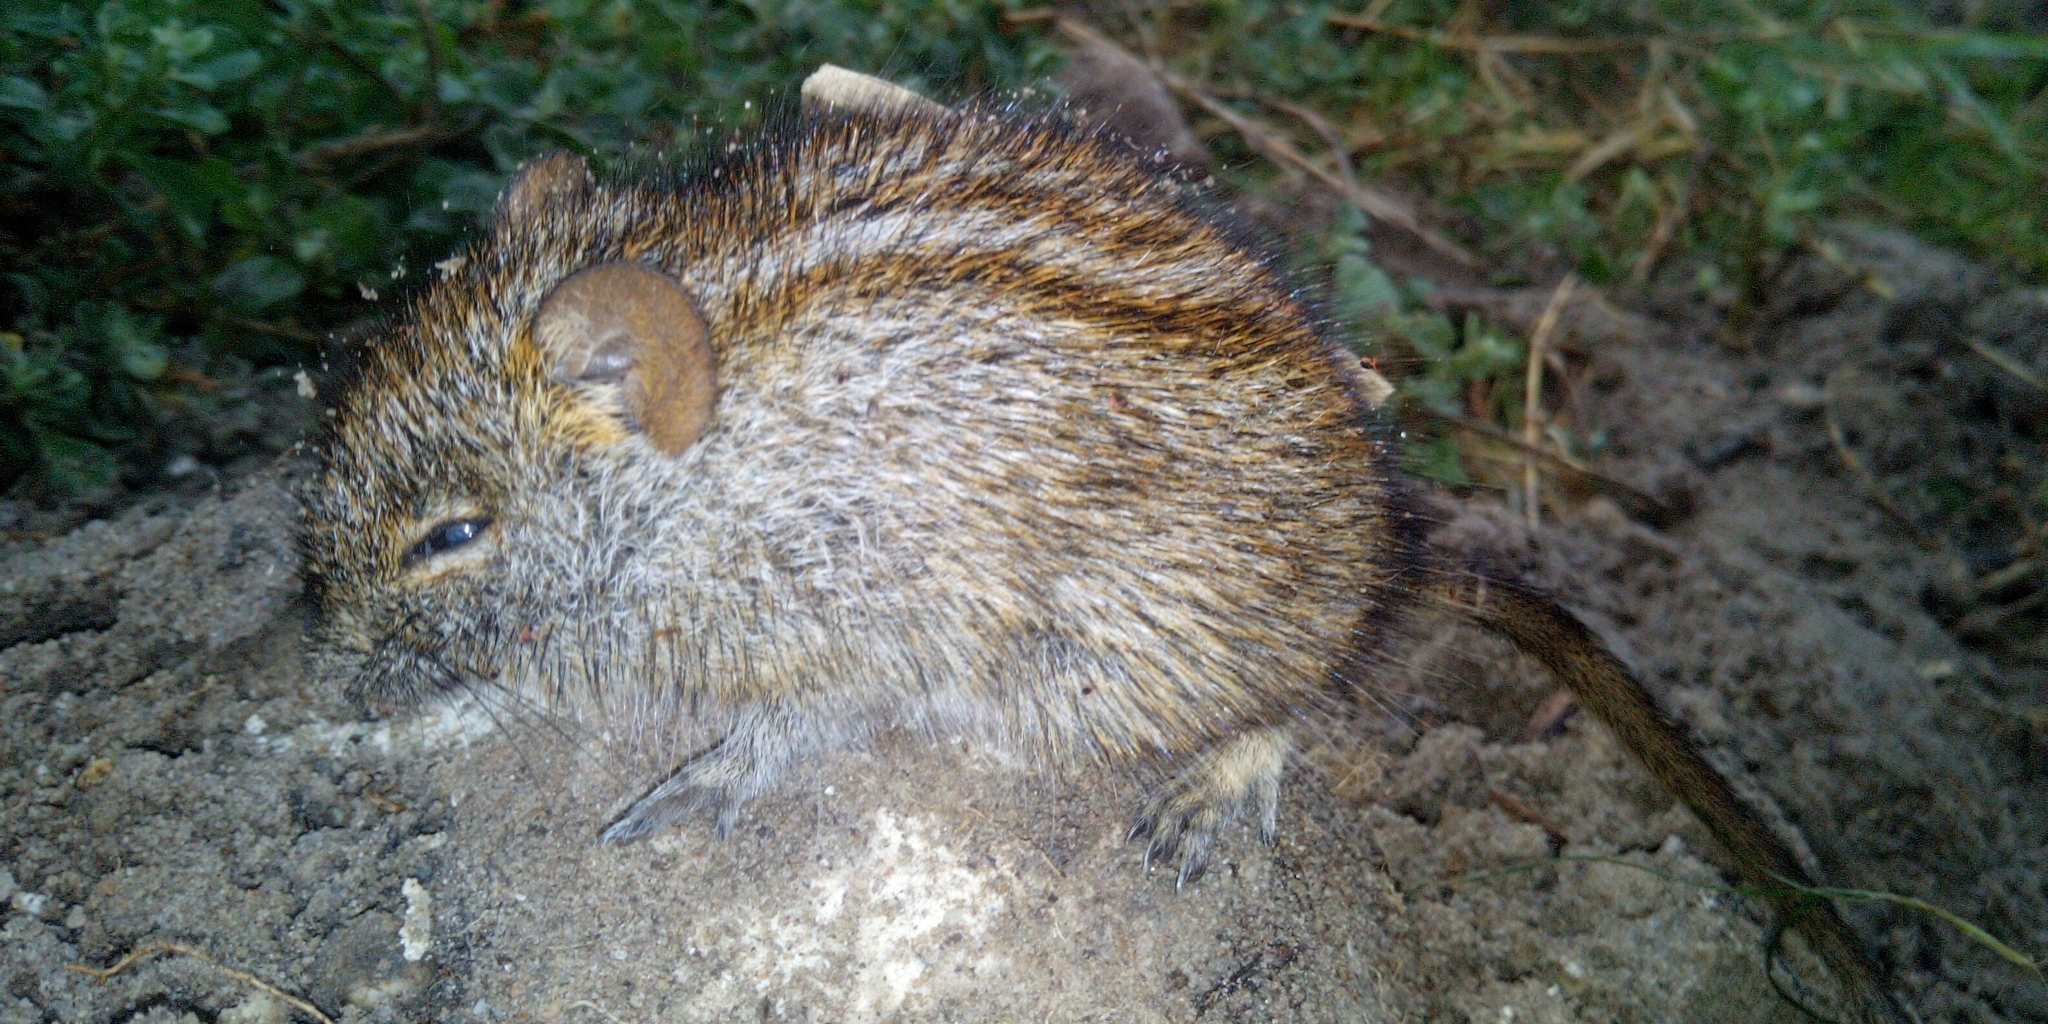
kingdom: Animalia
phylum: Chordata
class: Mammalia
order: Rodentia
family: Muridae
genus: Rhabdomys
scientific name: Rhabdomys pumilio
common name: Xeric four-striped grass rat
